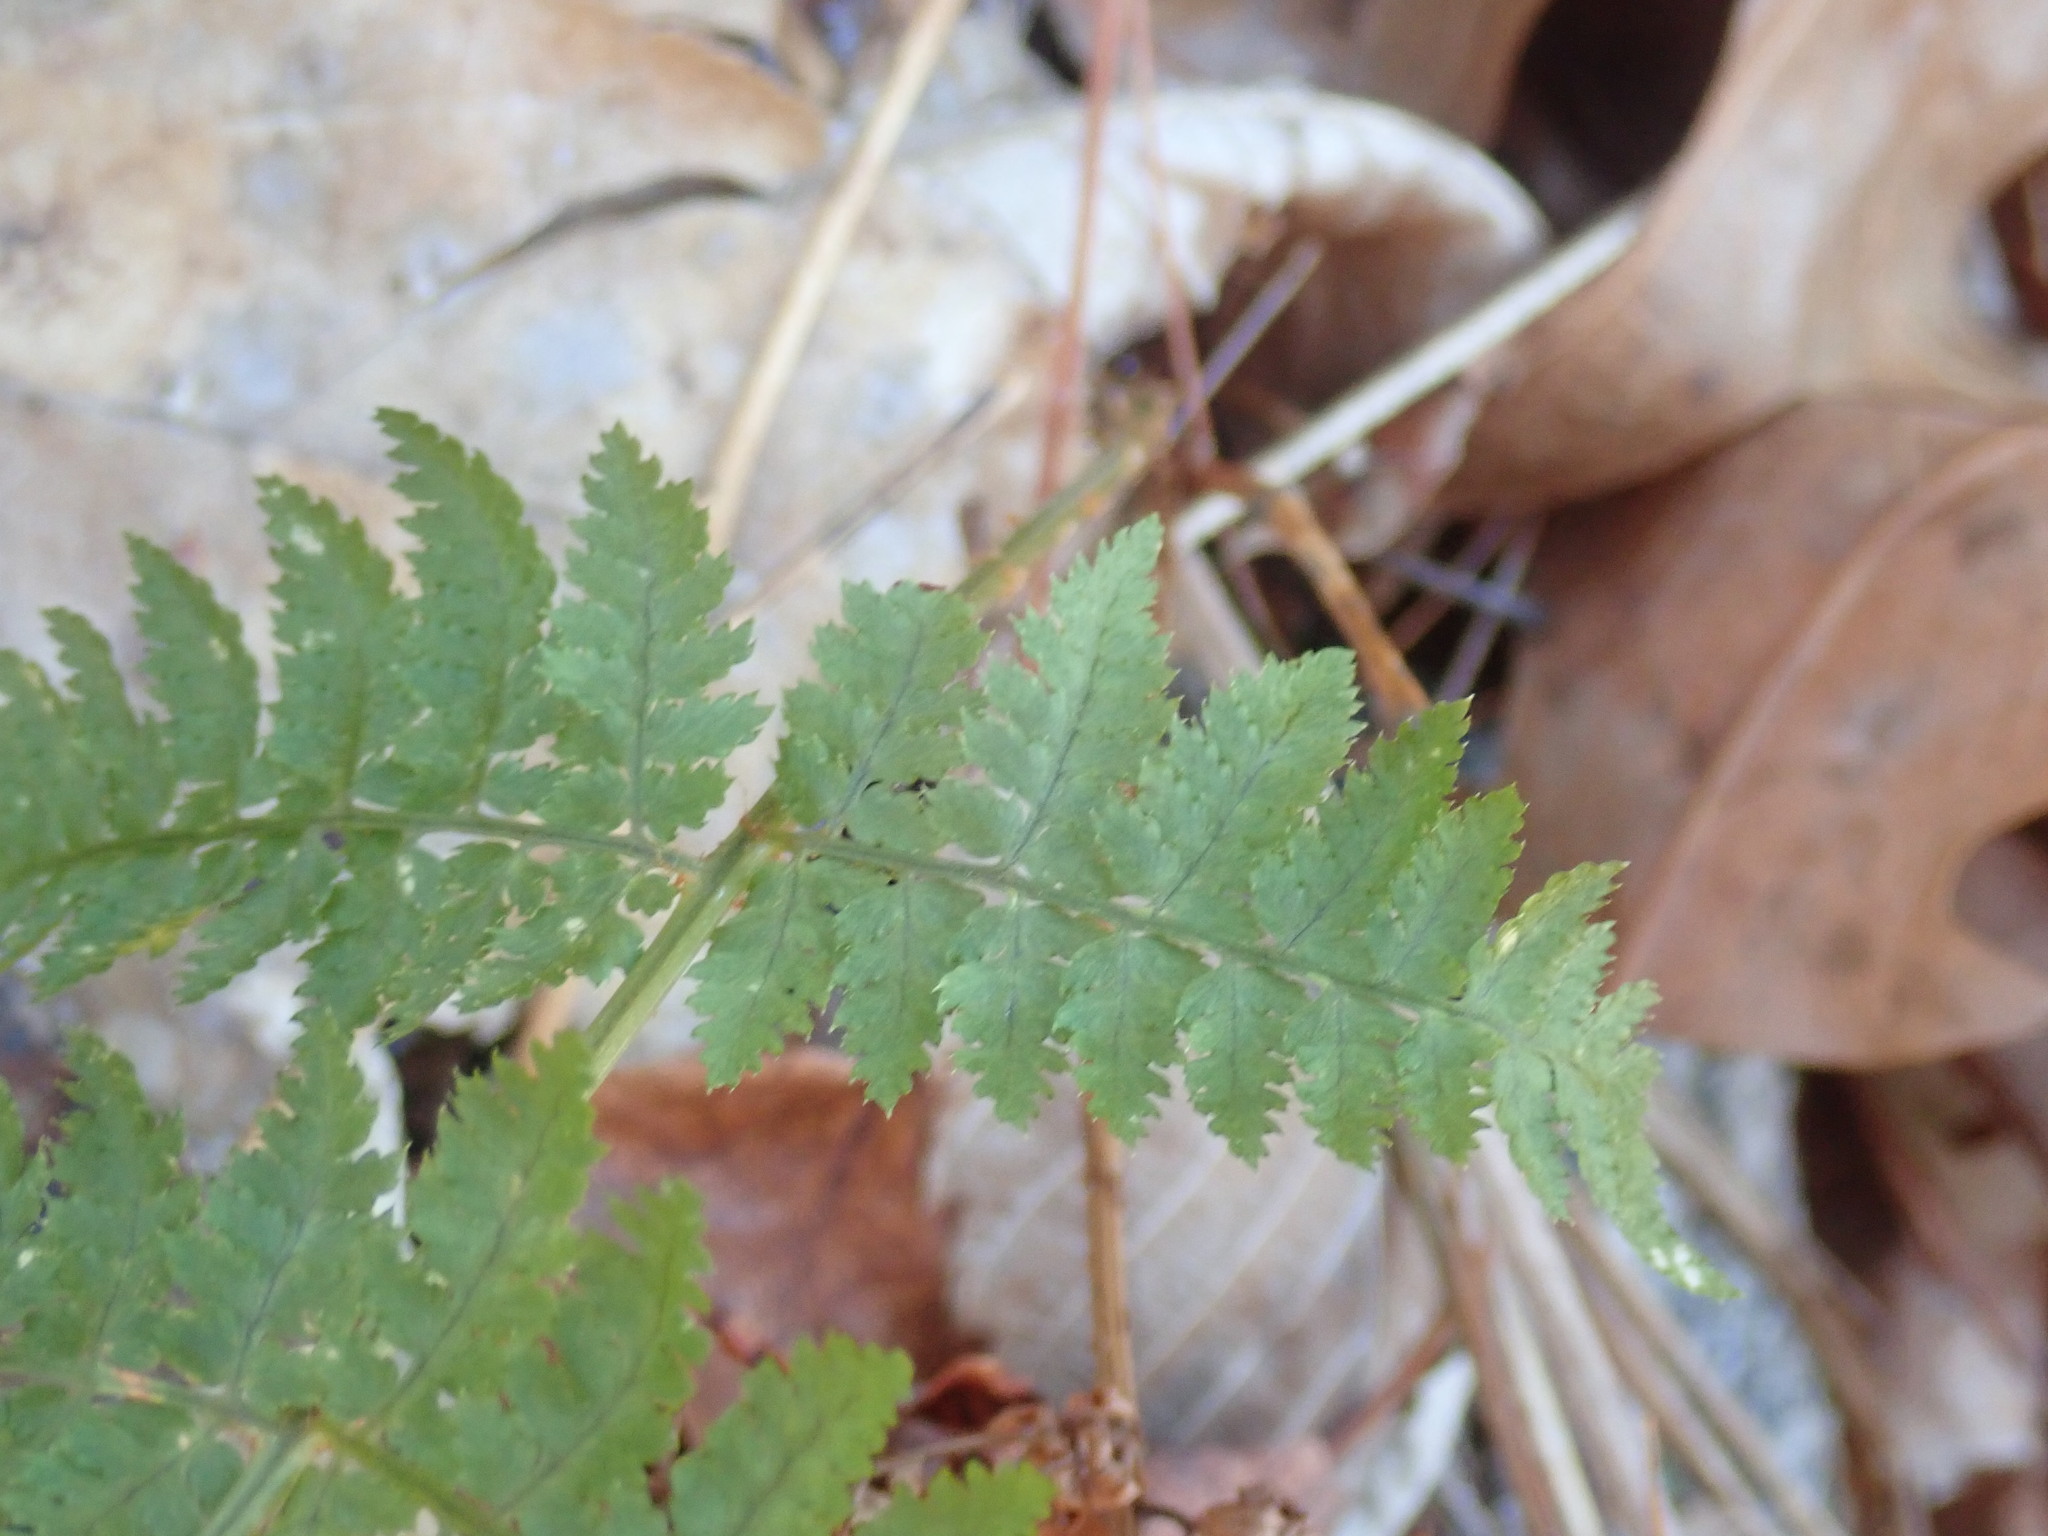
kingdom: Plantae
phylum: Tracheophyta
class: Polypodiopsida
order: Polypodiales
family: Dryopteridaceae
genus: Dryopteris
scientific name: Dryopteris intermedia
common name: Evergreen wood fern
